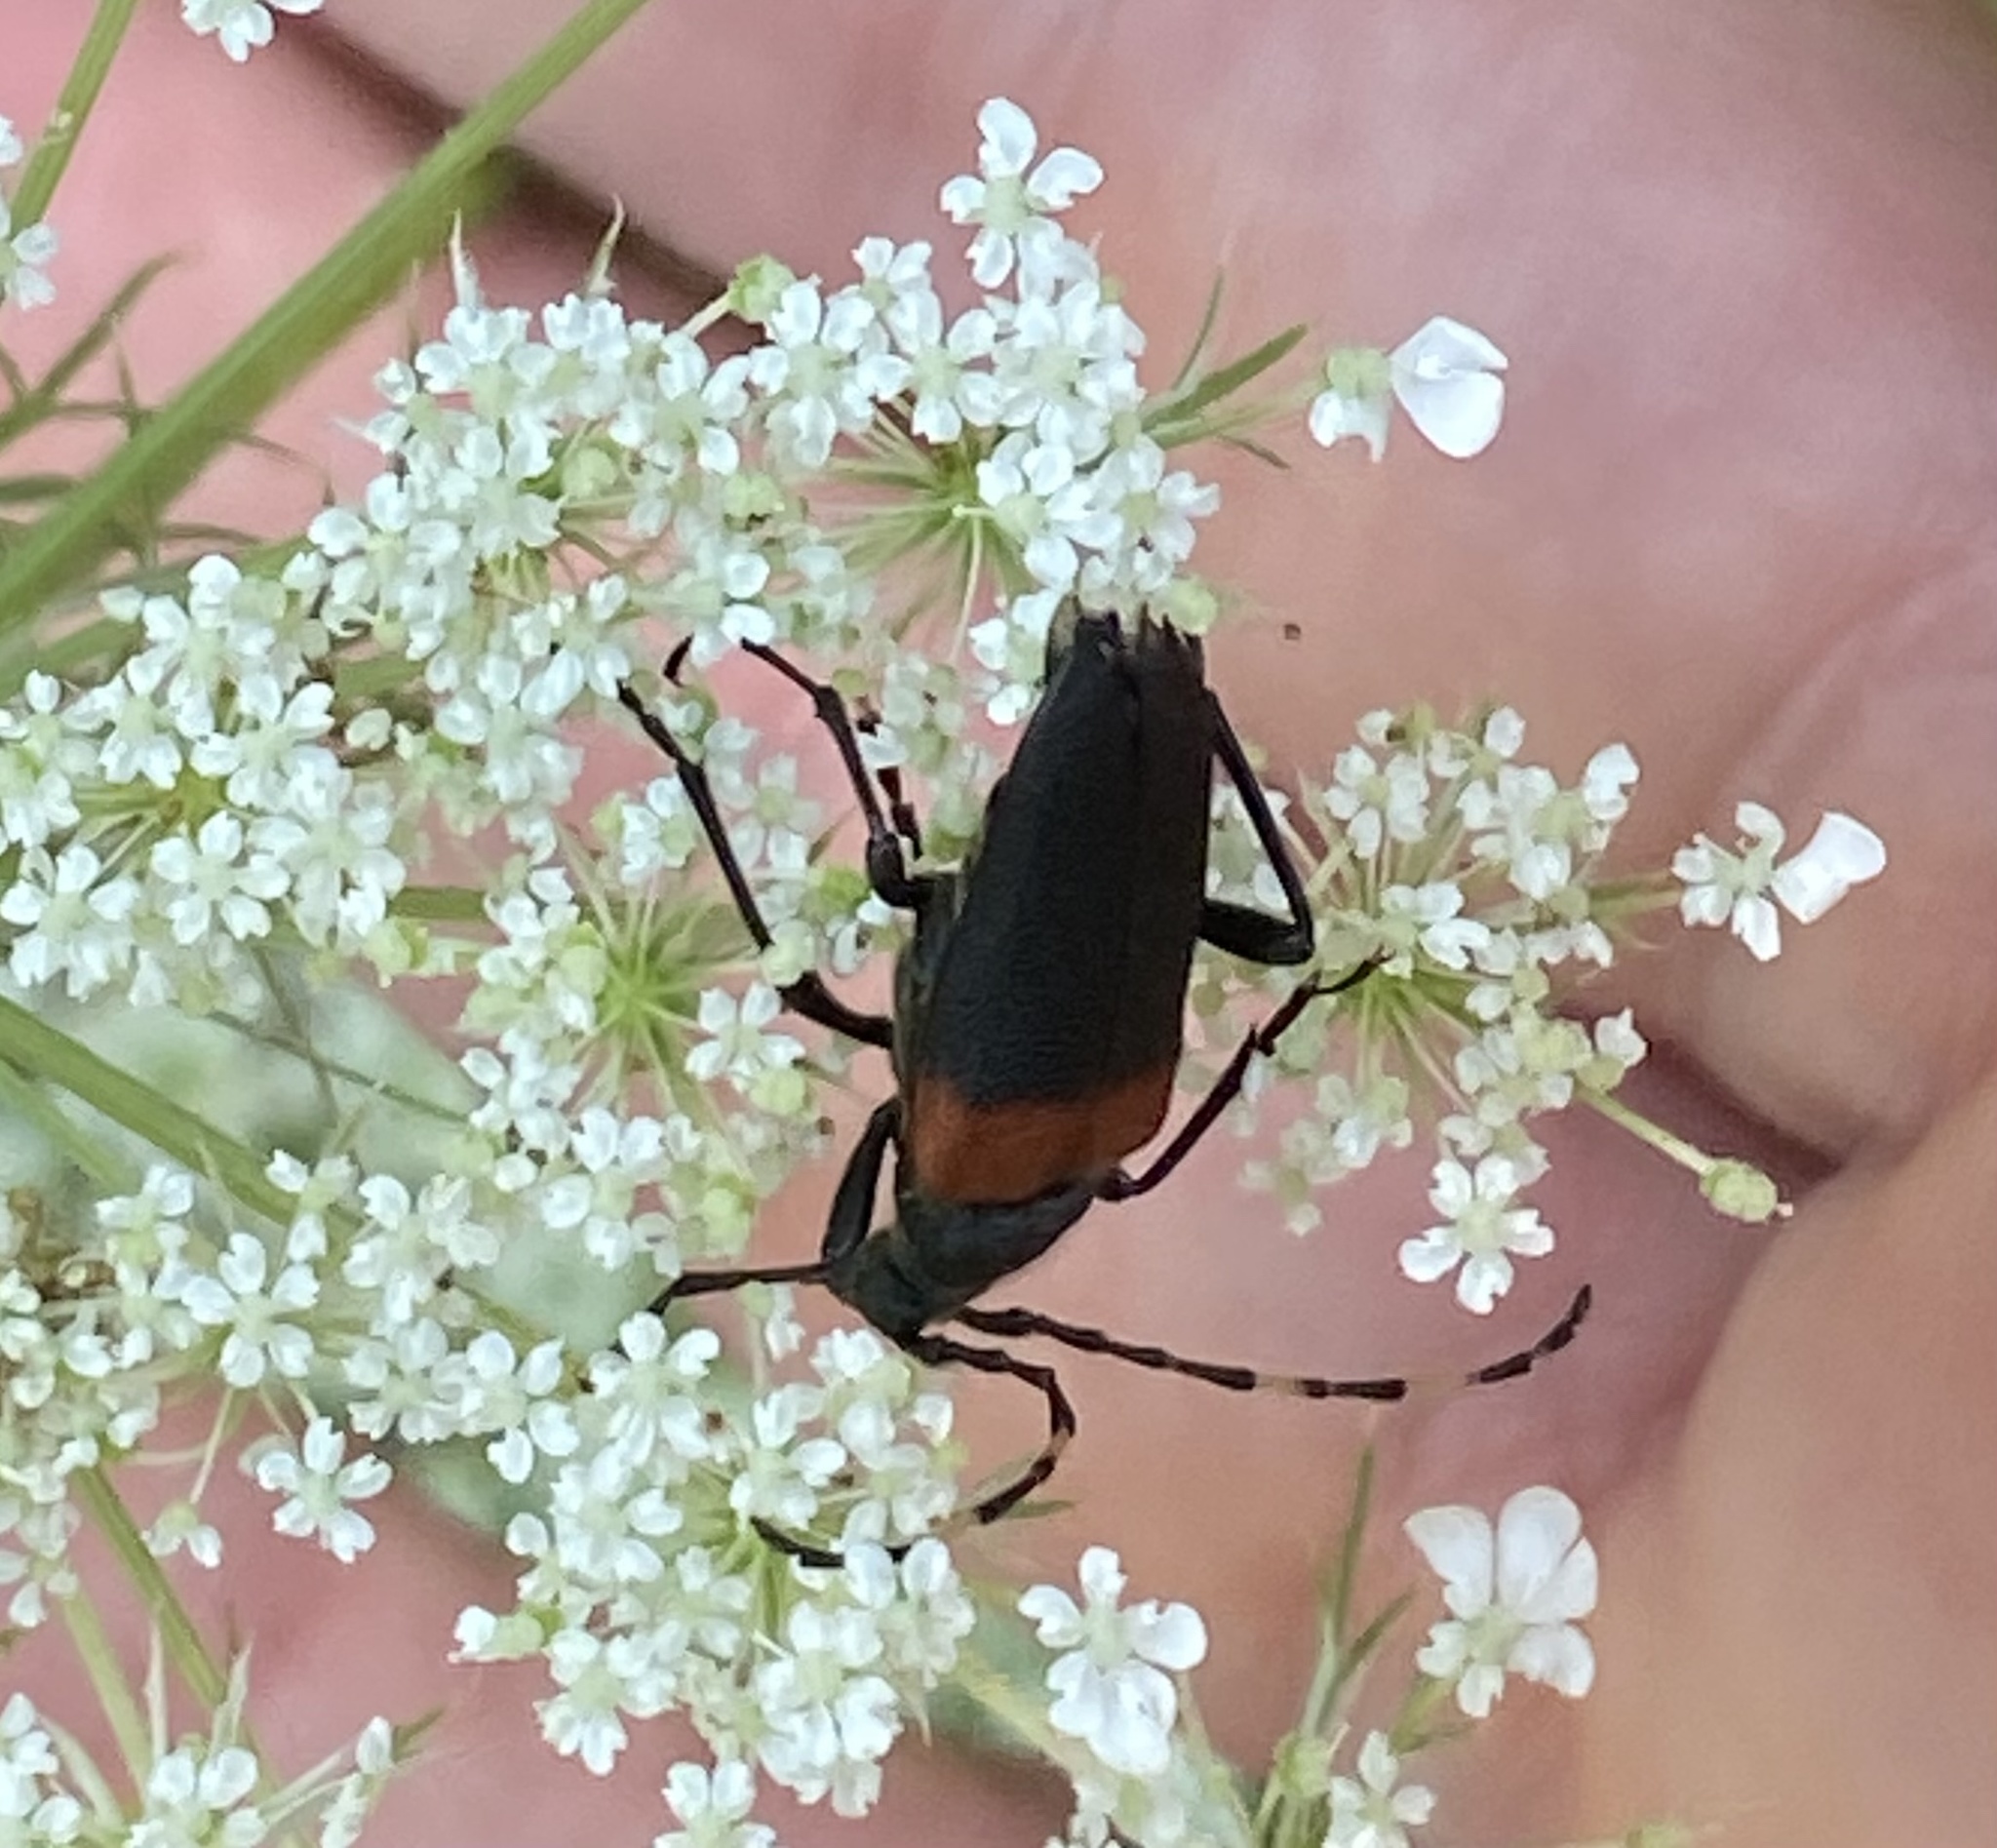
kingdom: Animalia
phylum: Arthropoda
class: Insecta
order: Coleoptera
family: Cerambycidae
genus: Stictoleptura
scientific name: Stictoleptura canadensis
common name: Red-shouldered pine borer
